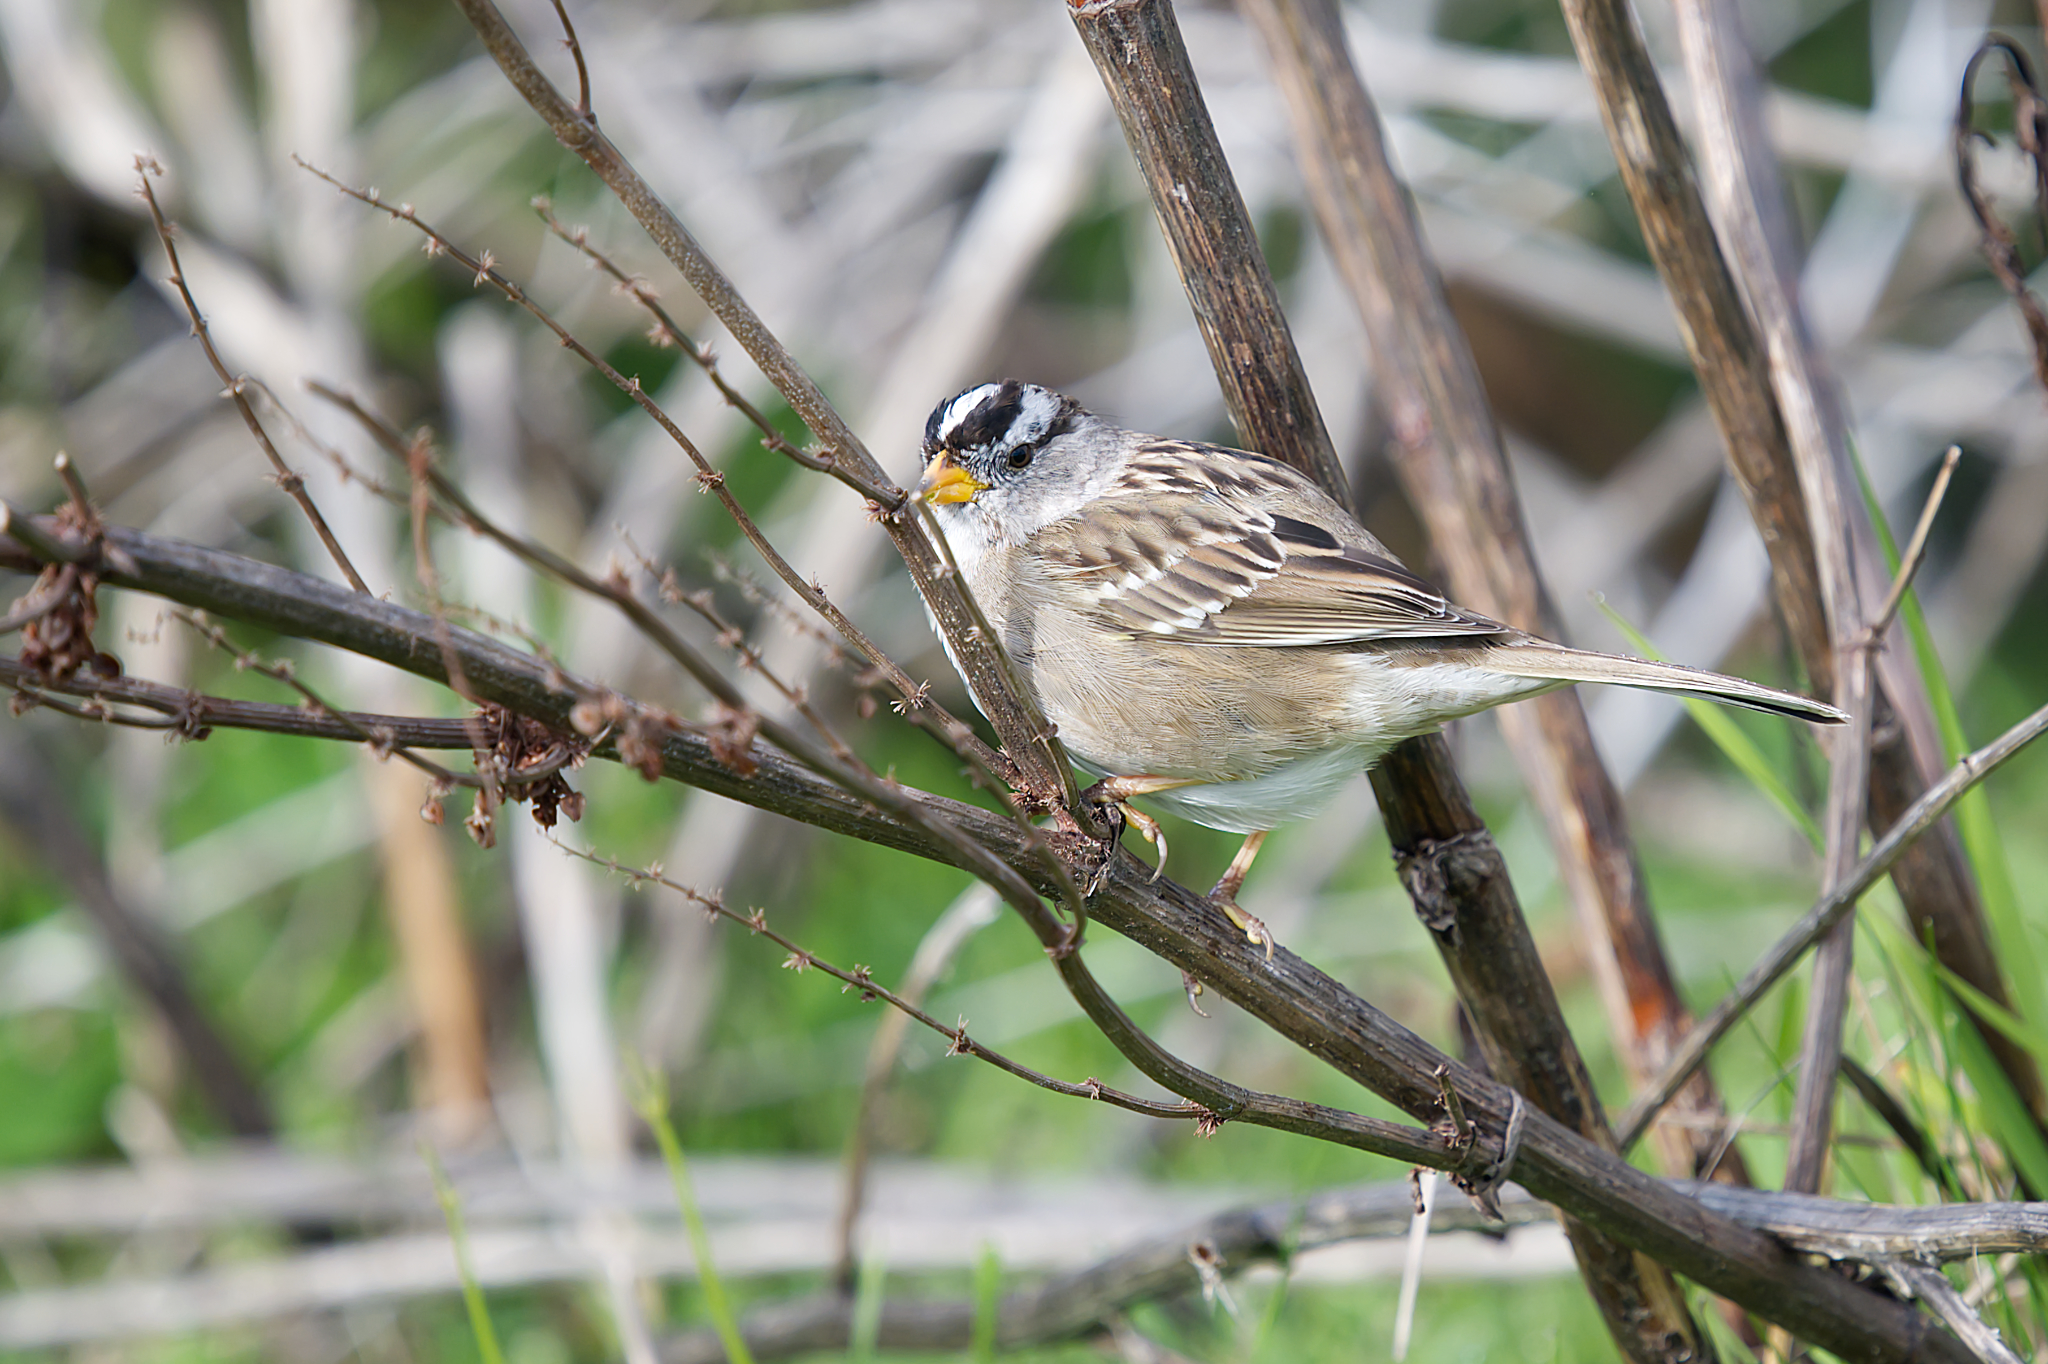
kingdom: Animalia
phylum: Chordata
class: Aves
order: Passeriformes
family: Passerellidae
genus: Zonotrichia
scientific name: Zonotrichia leucophrys
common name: White-crowned sparrow
